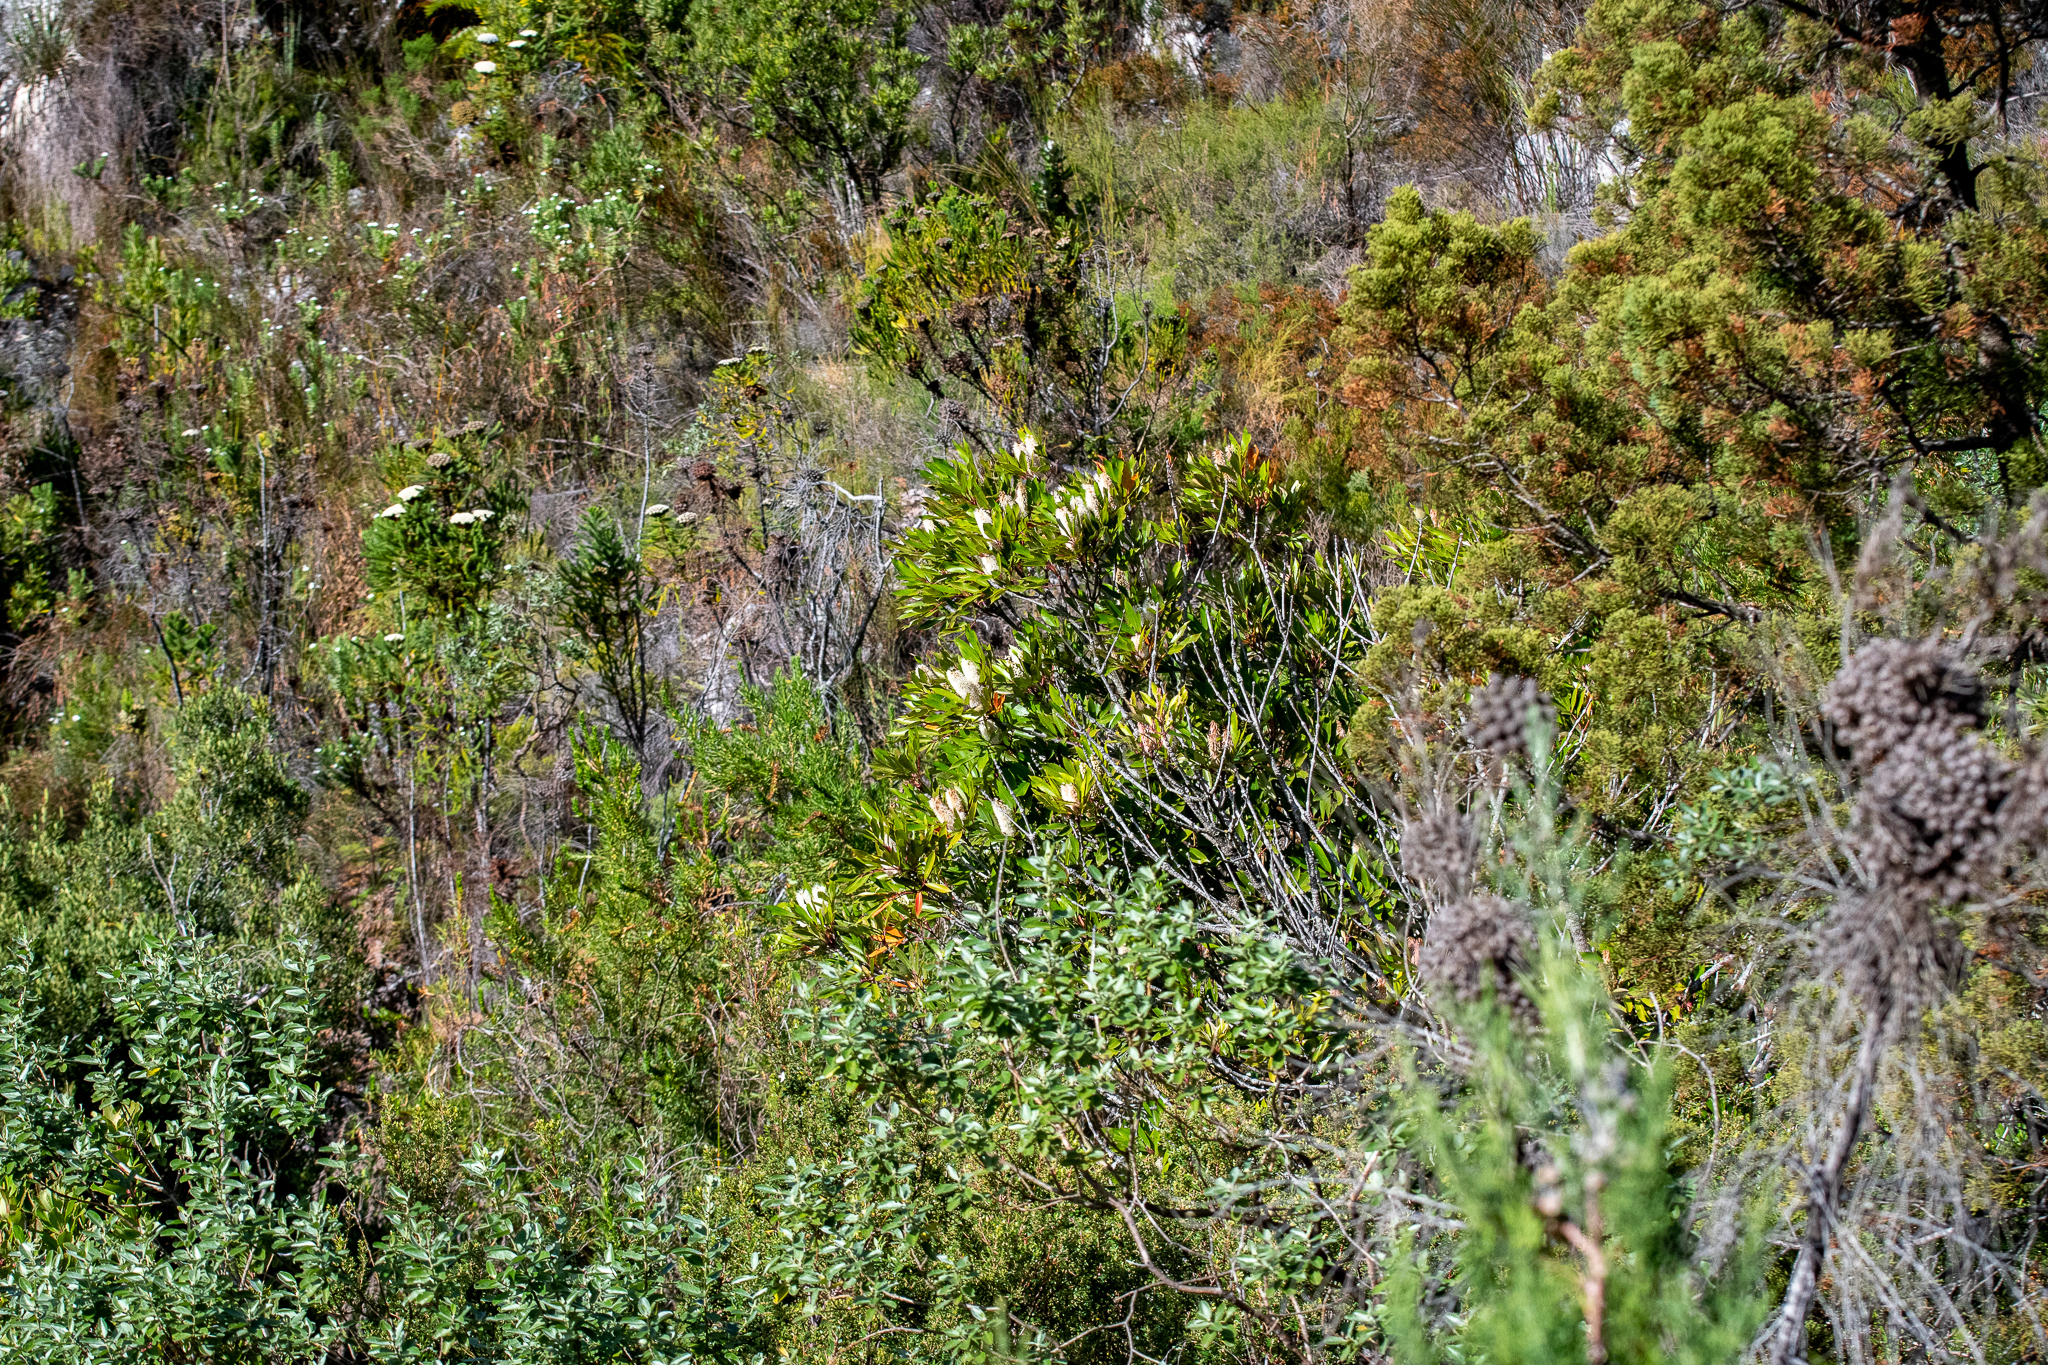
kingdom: Plantae
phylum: Tracheophyta
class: Magnoliopsida
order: Oxalidales
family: Cunoniaceae
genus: Cunonia
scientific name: Cunonia capensis
